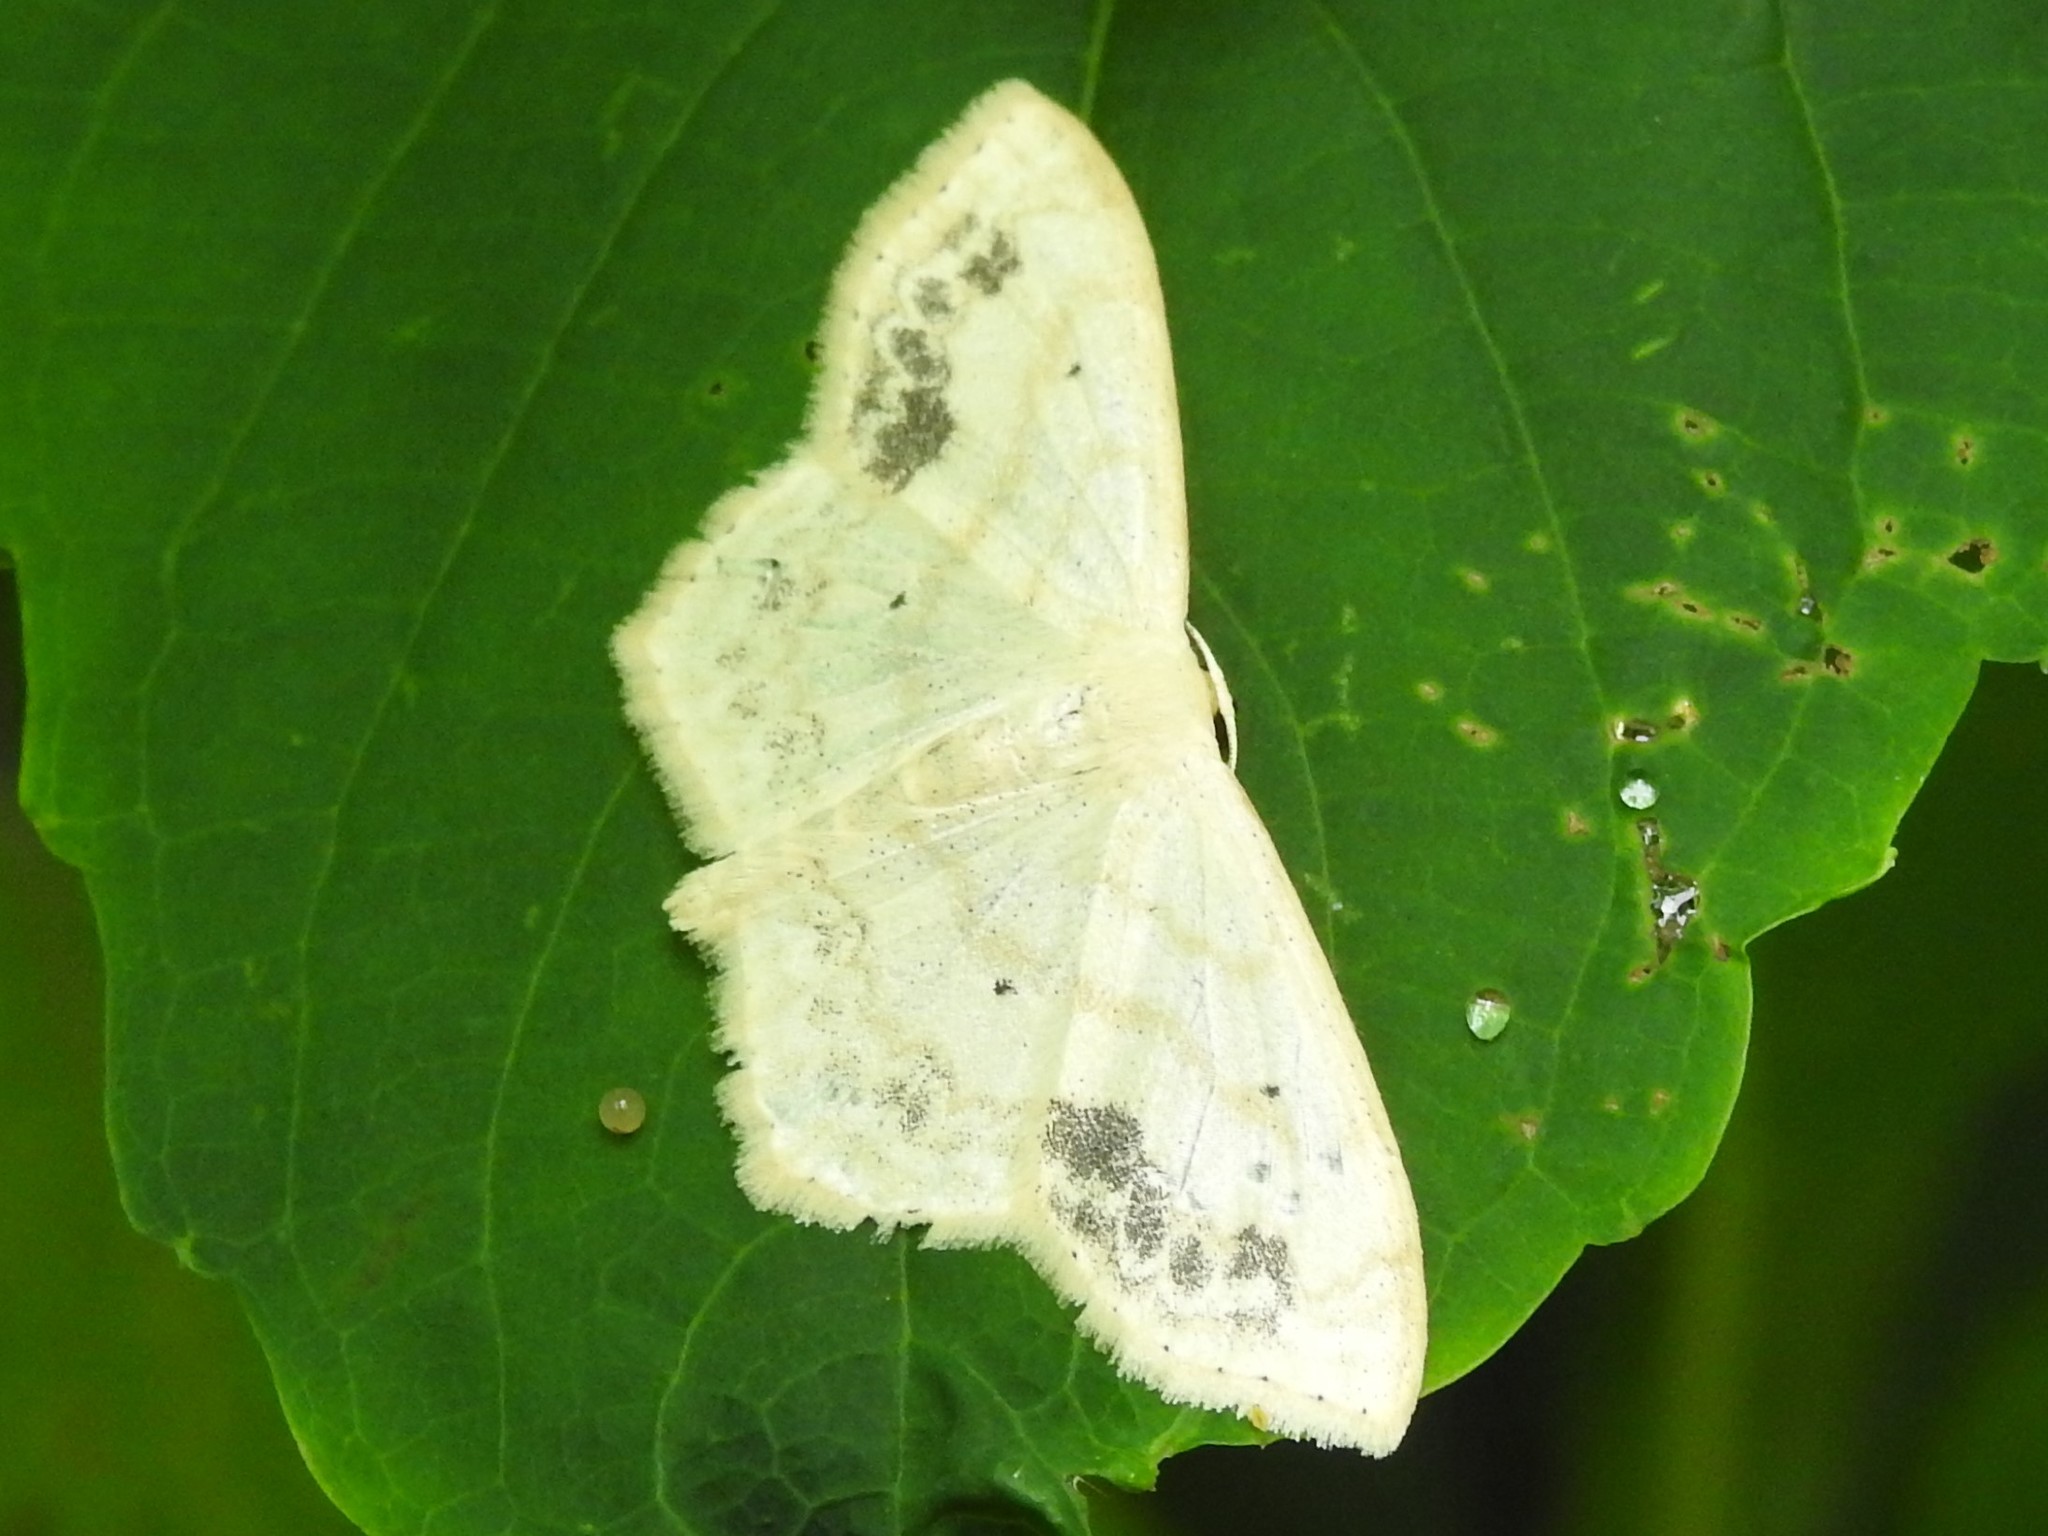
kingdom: Animalia
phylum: Arthropoda
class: Insecta
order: Lepidoptera
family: Geometridae
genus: Scopula
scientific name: Scopula limboundata
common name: Large lace border
